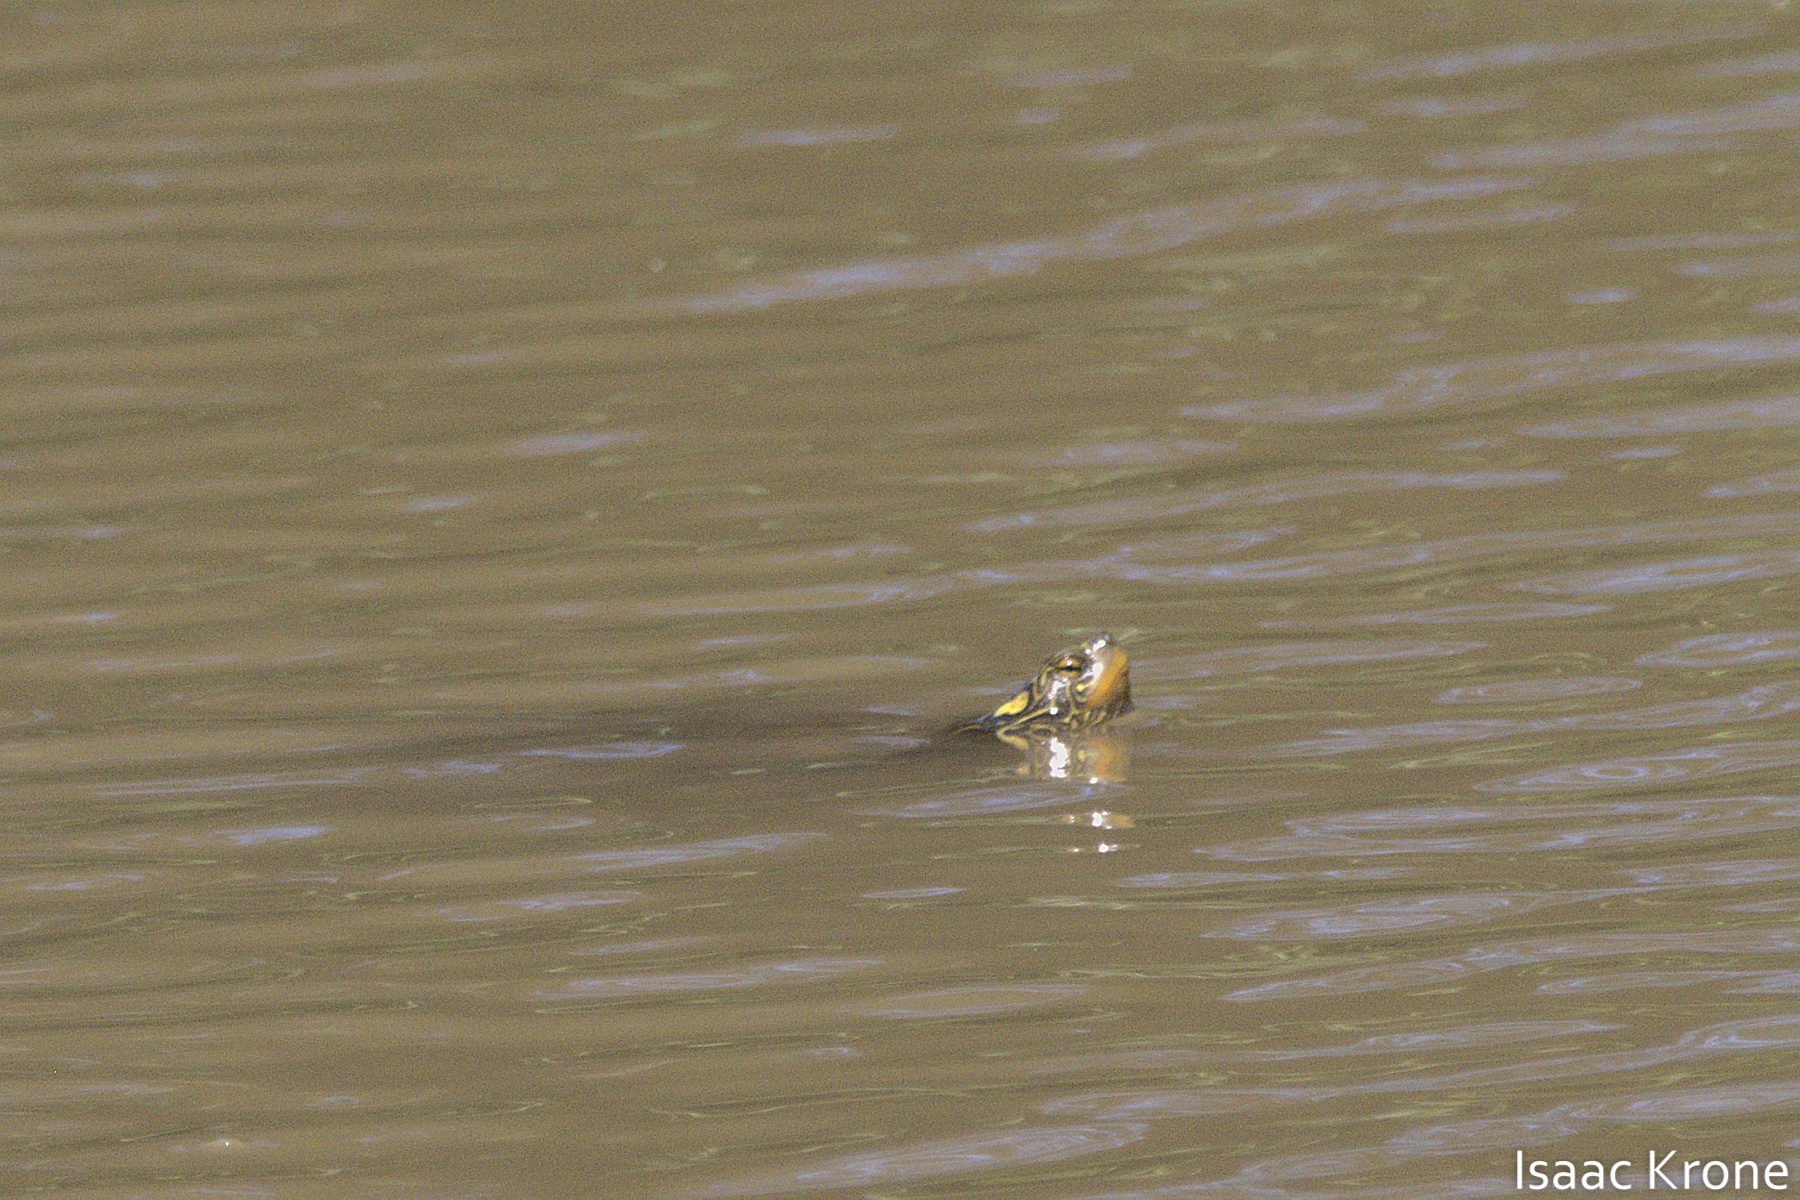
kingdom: Animalia
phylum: Chordata
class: Testudines
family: Emydidae
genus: Graptemys
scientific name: Graptemys geographica
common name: Common map turtle
